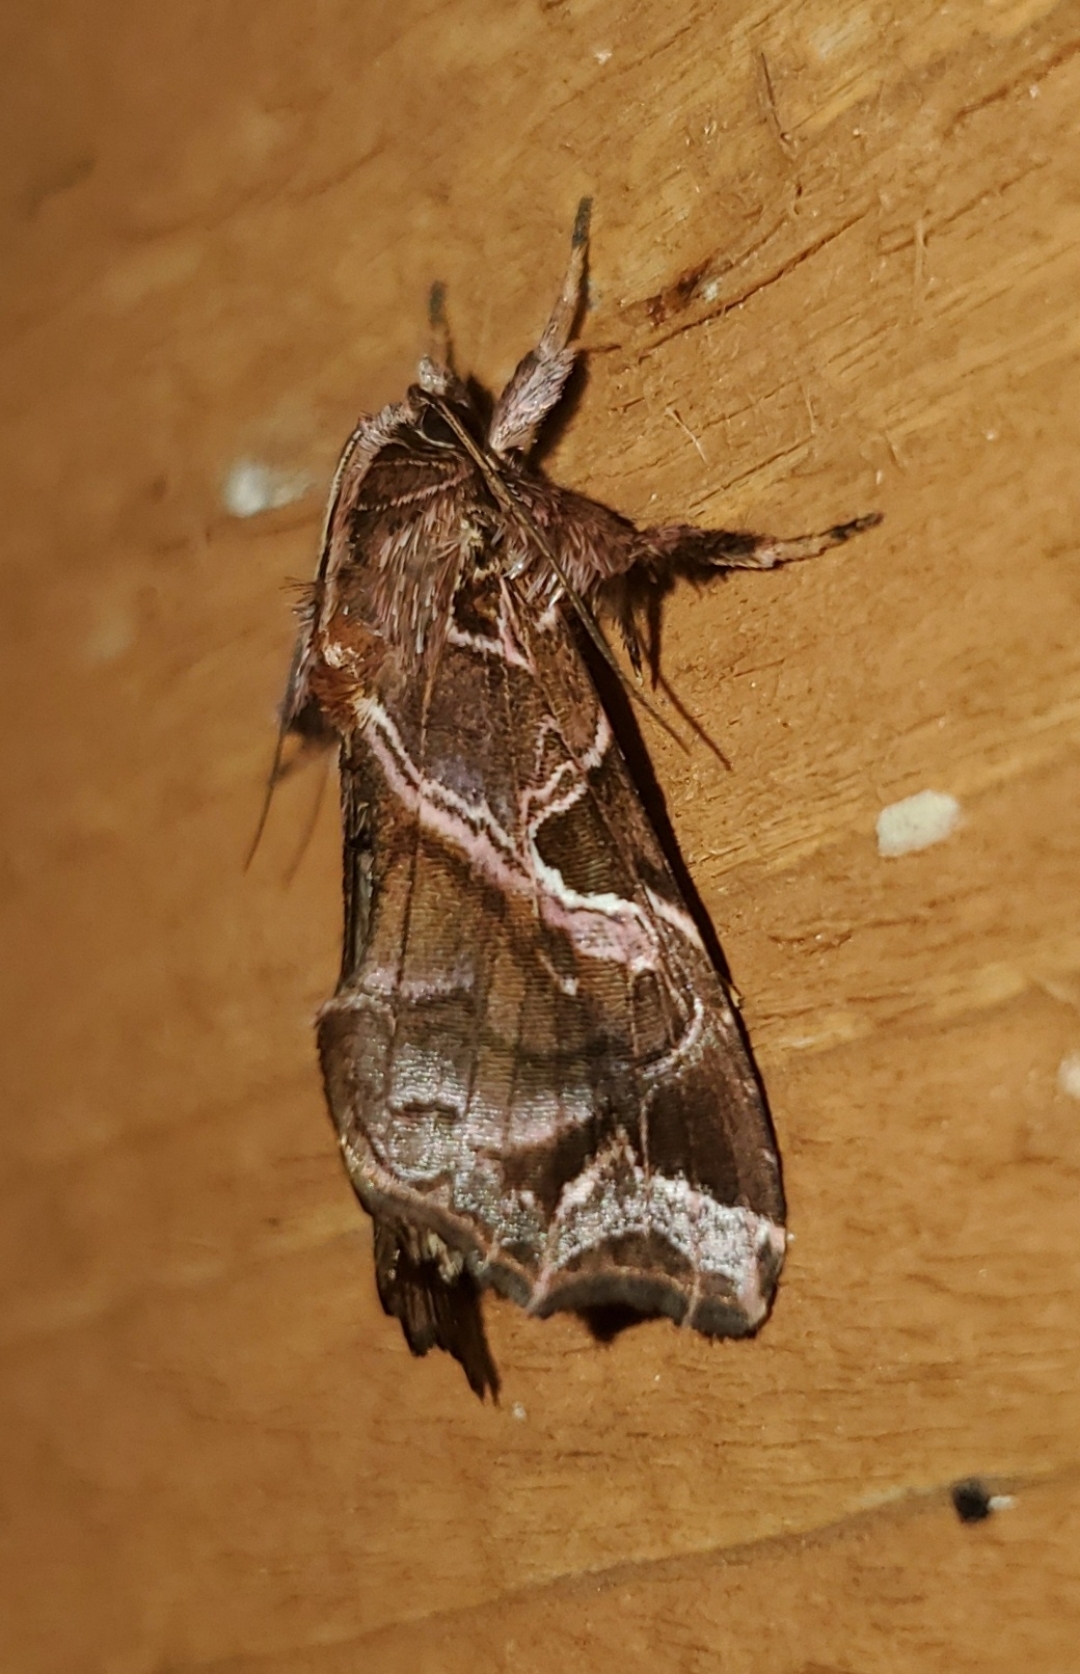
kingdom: Animalia
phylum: Arthropoda
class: Insecta
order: Lepidoptera
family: Noctuidae
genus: Callopistria
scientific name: Callopistria floridensis
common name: Florida fern moth
